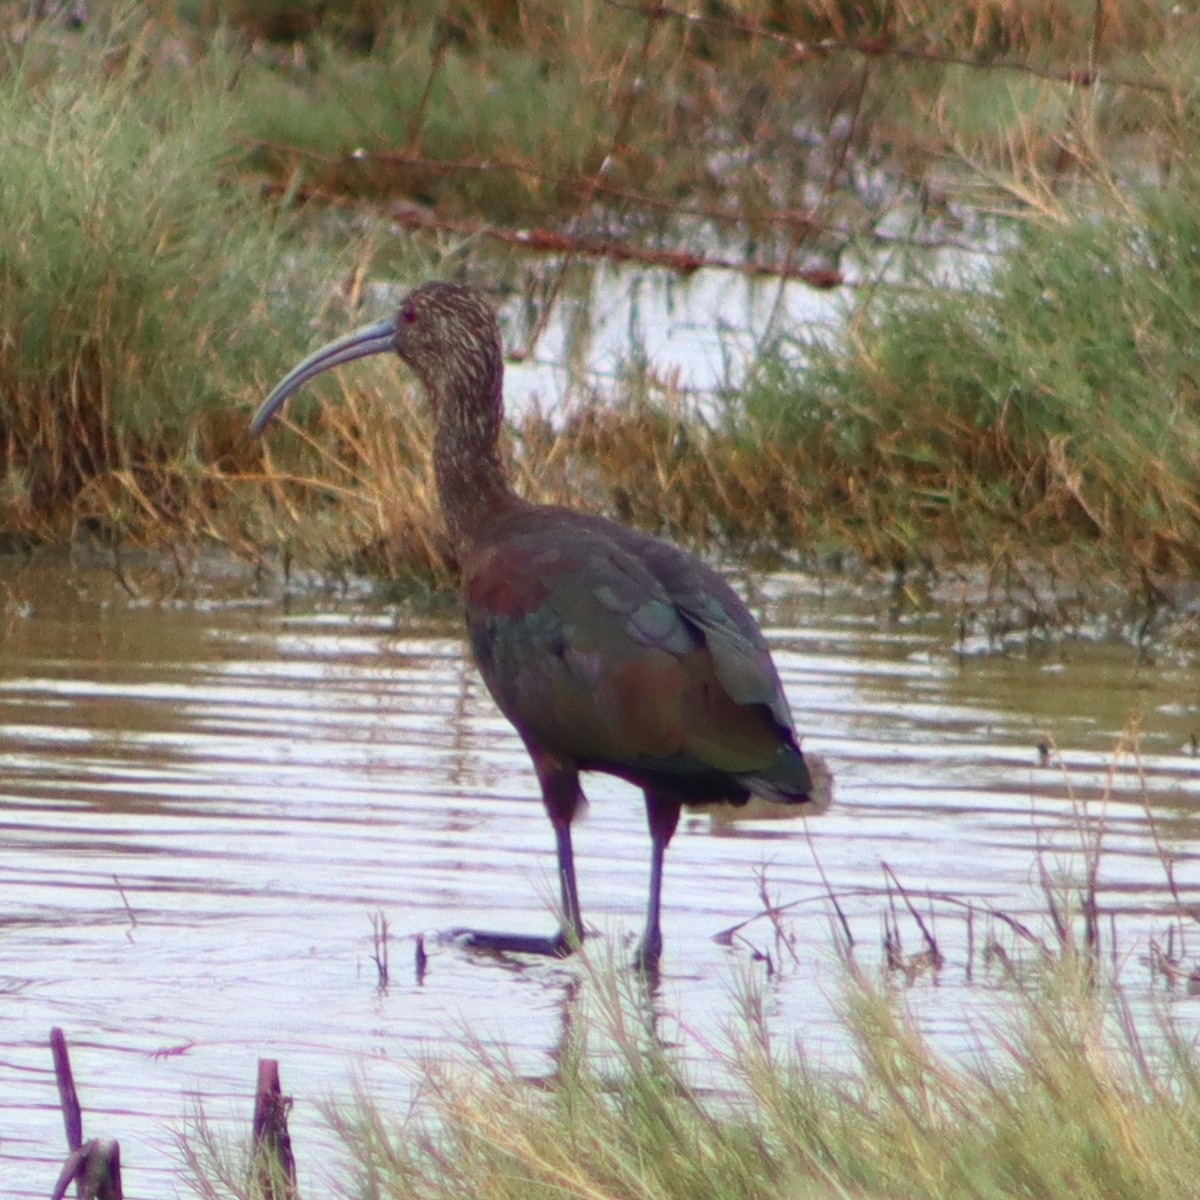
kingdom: Animalia
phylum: Chordata
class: Aves
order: Pelecaniformes
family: Threskiornithidae
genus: Plegadis
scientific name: Plegadis chihi
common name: White-faced ibis
